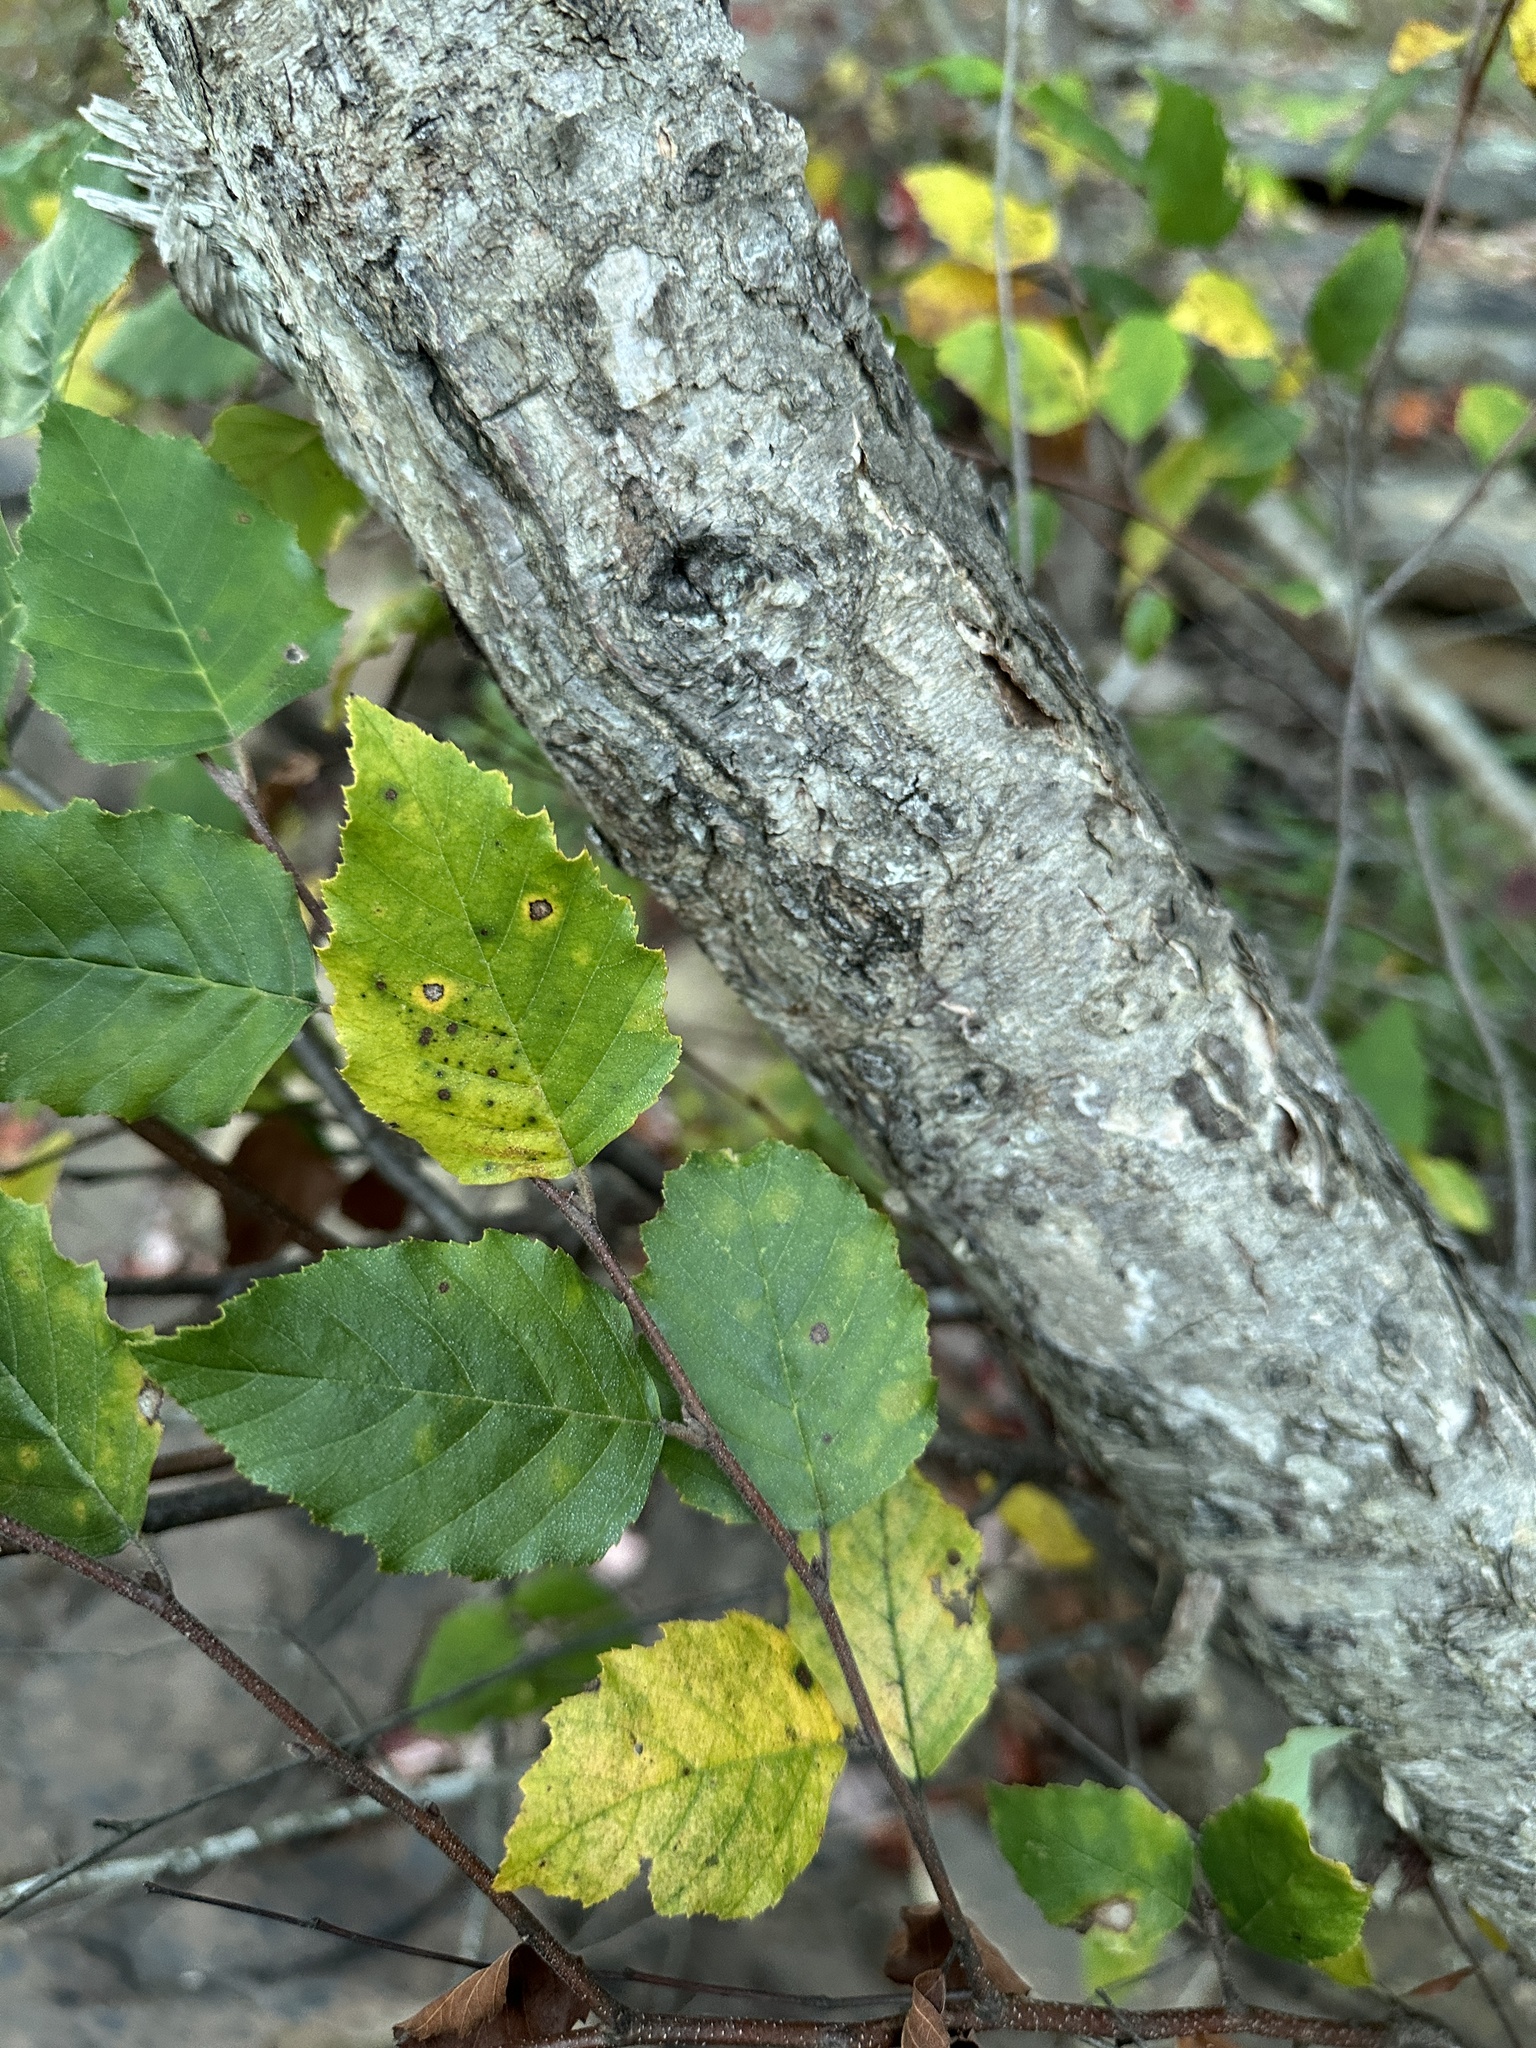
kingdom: Plantae
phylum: Tracheophyta
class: Magnoliopsida
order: Fagales
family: Betulaceae
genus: Betula
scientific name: Betula nigra
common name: Black birch
